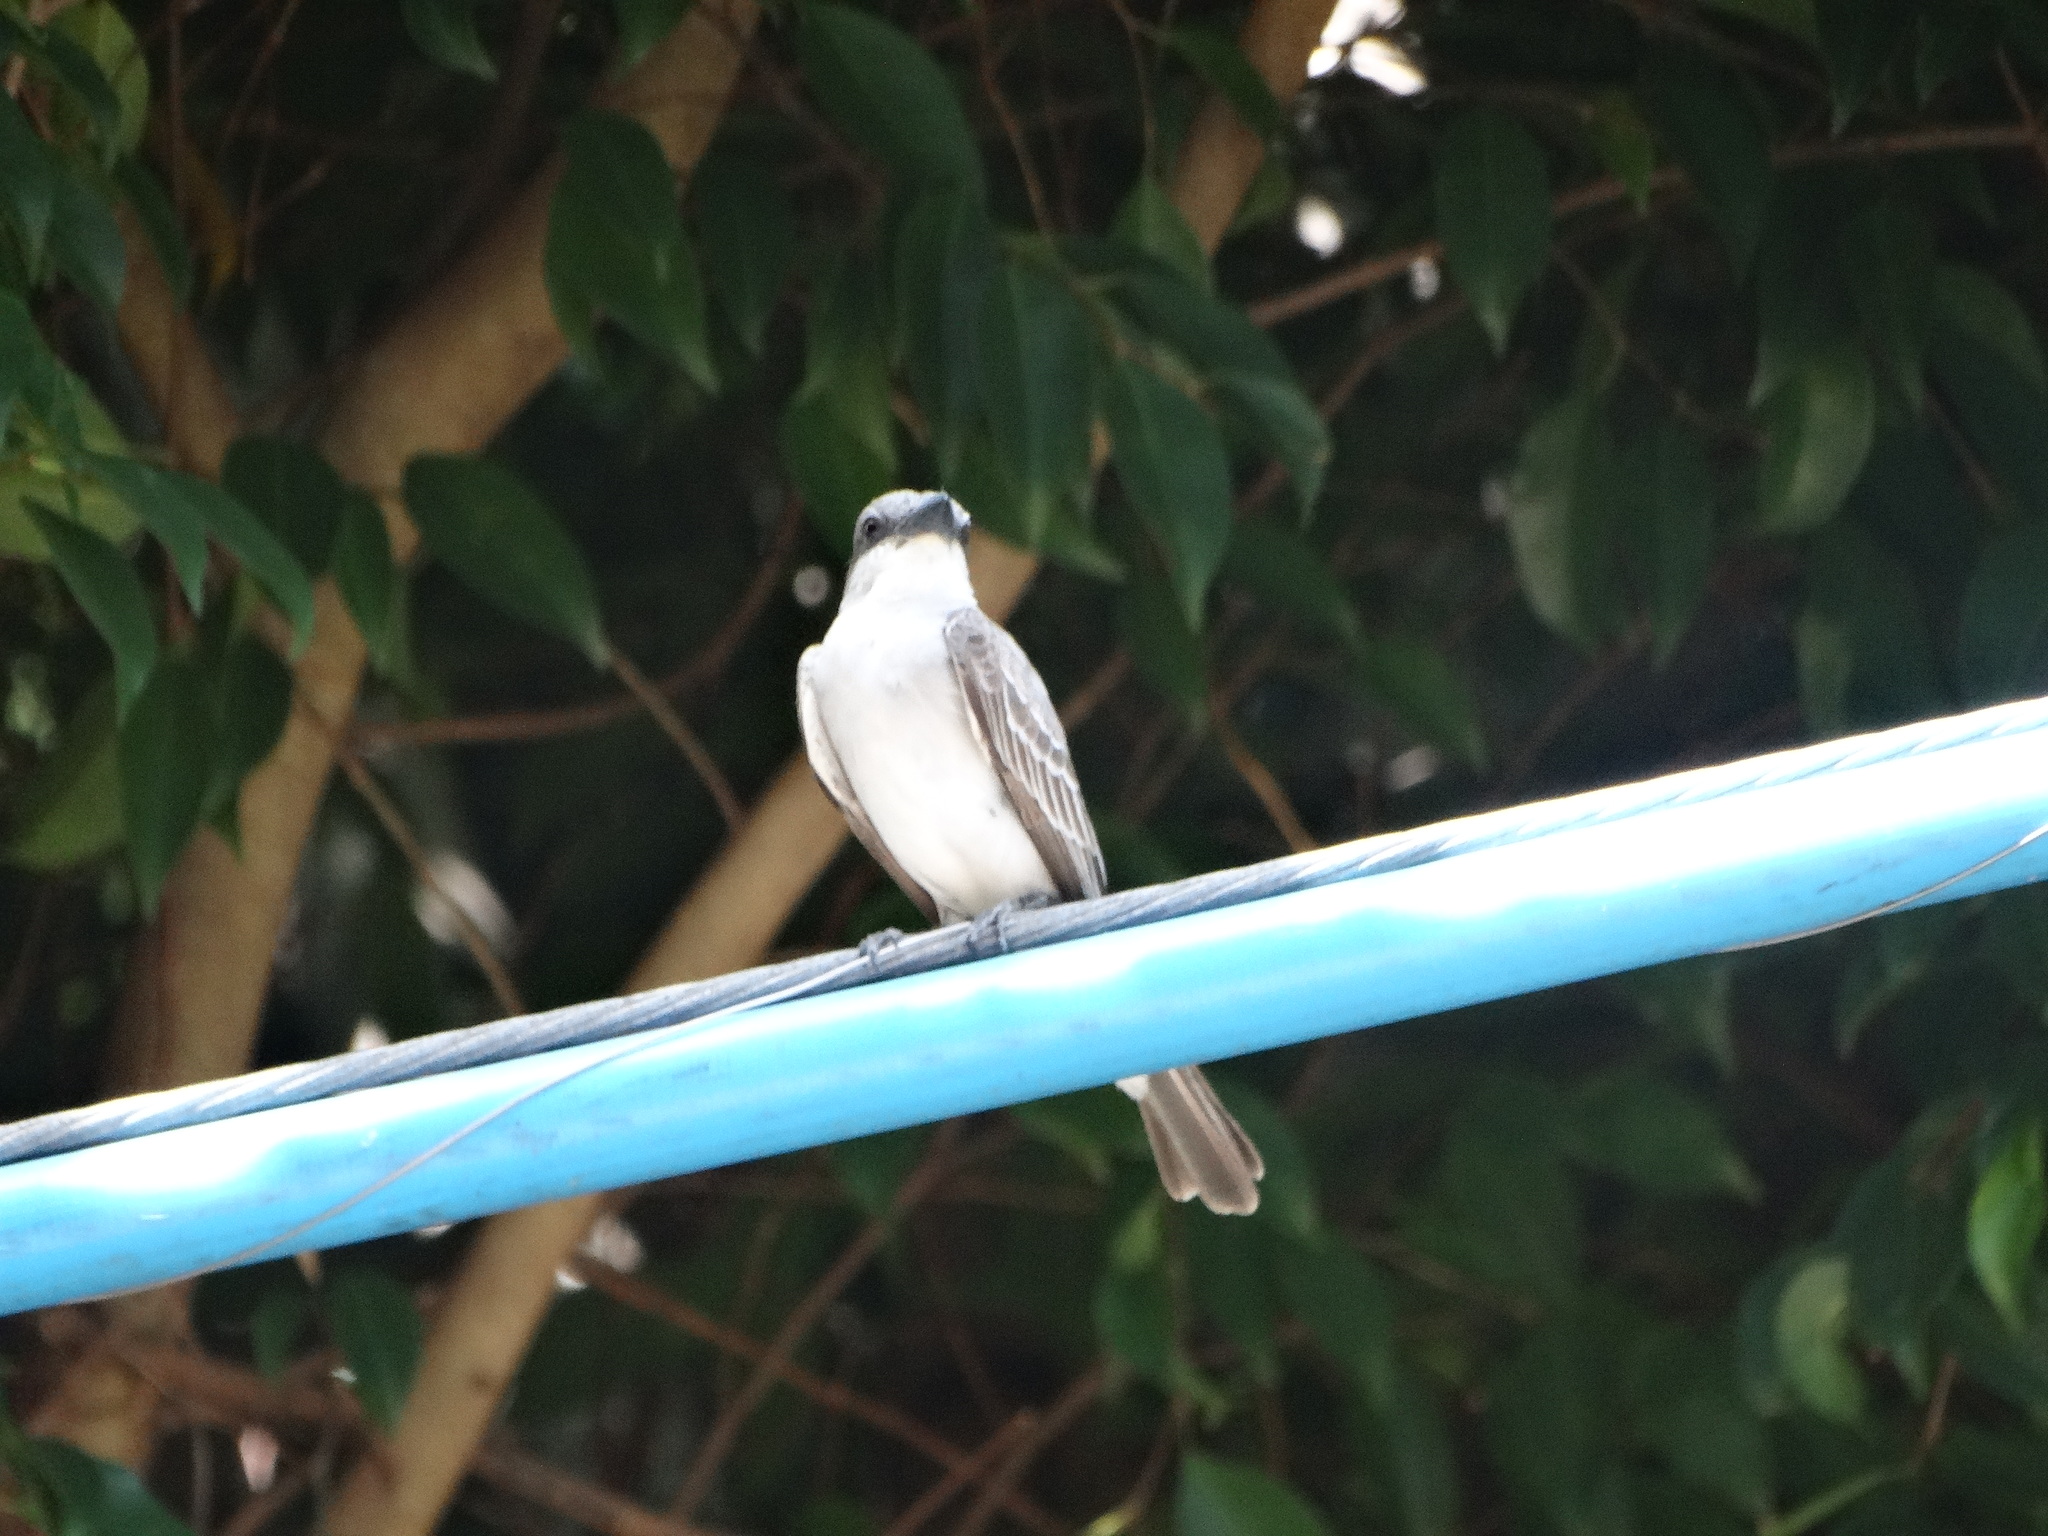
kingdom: Animalia
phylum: Chordata
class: Aves
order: Passeriformes
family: Tyrannidae
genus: Tyrannus
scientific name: Tyrannus dominicensis
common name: Gray kingbird
